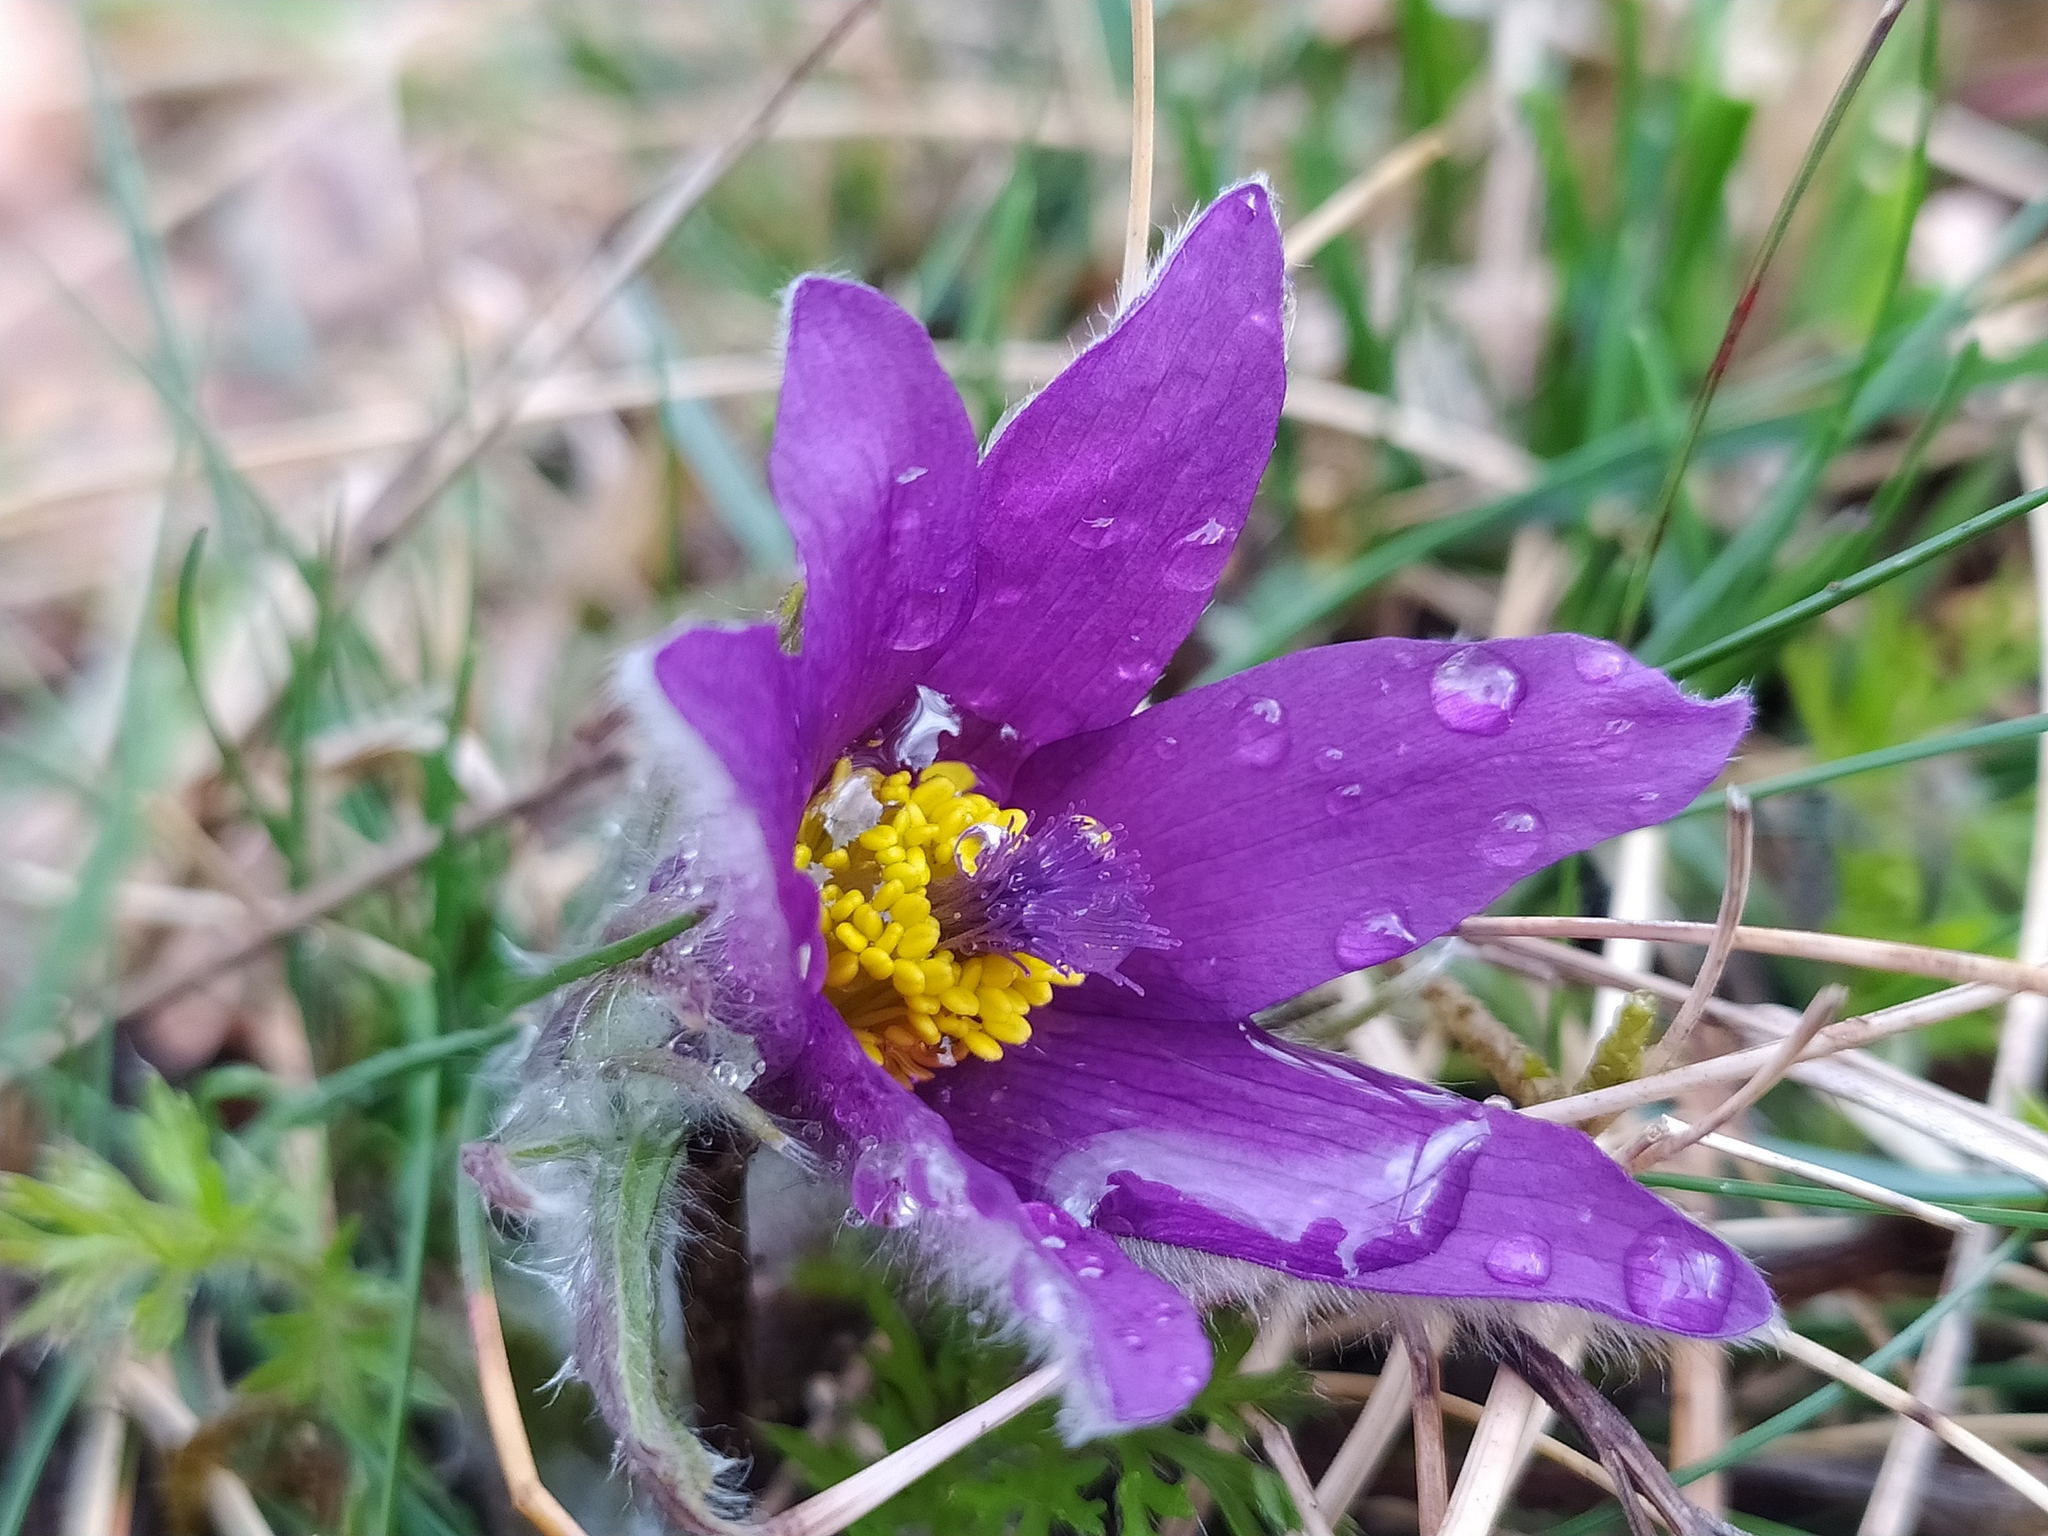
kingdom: Plantae
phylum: Tracheophyta
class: Magnoliopsida
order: Ranunculales
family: Ranunculaceae
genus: Pulsatilla
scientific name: Pulsatilla vulgaris
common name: Pasqueflower
